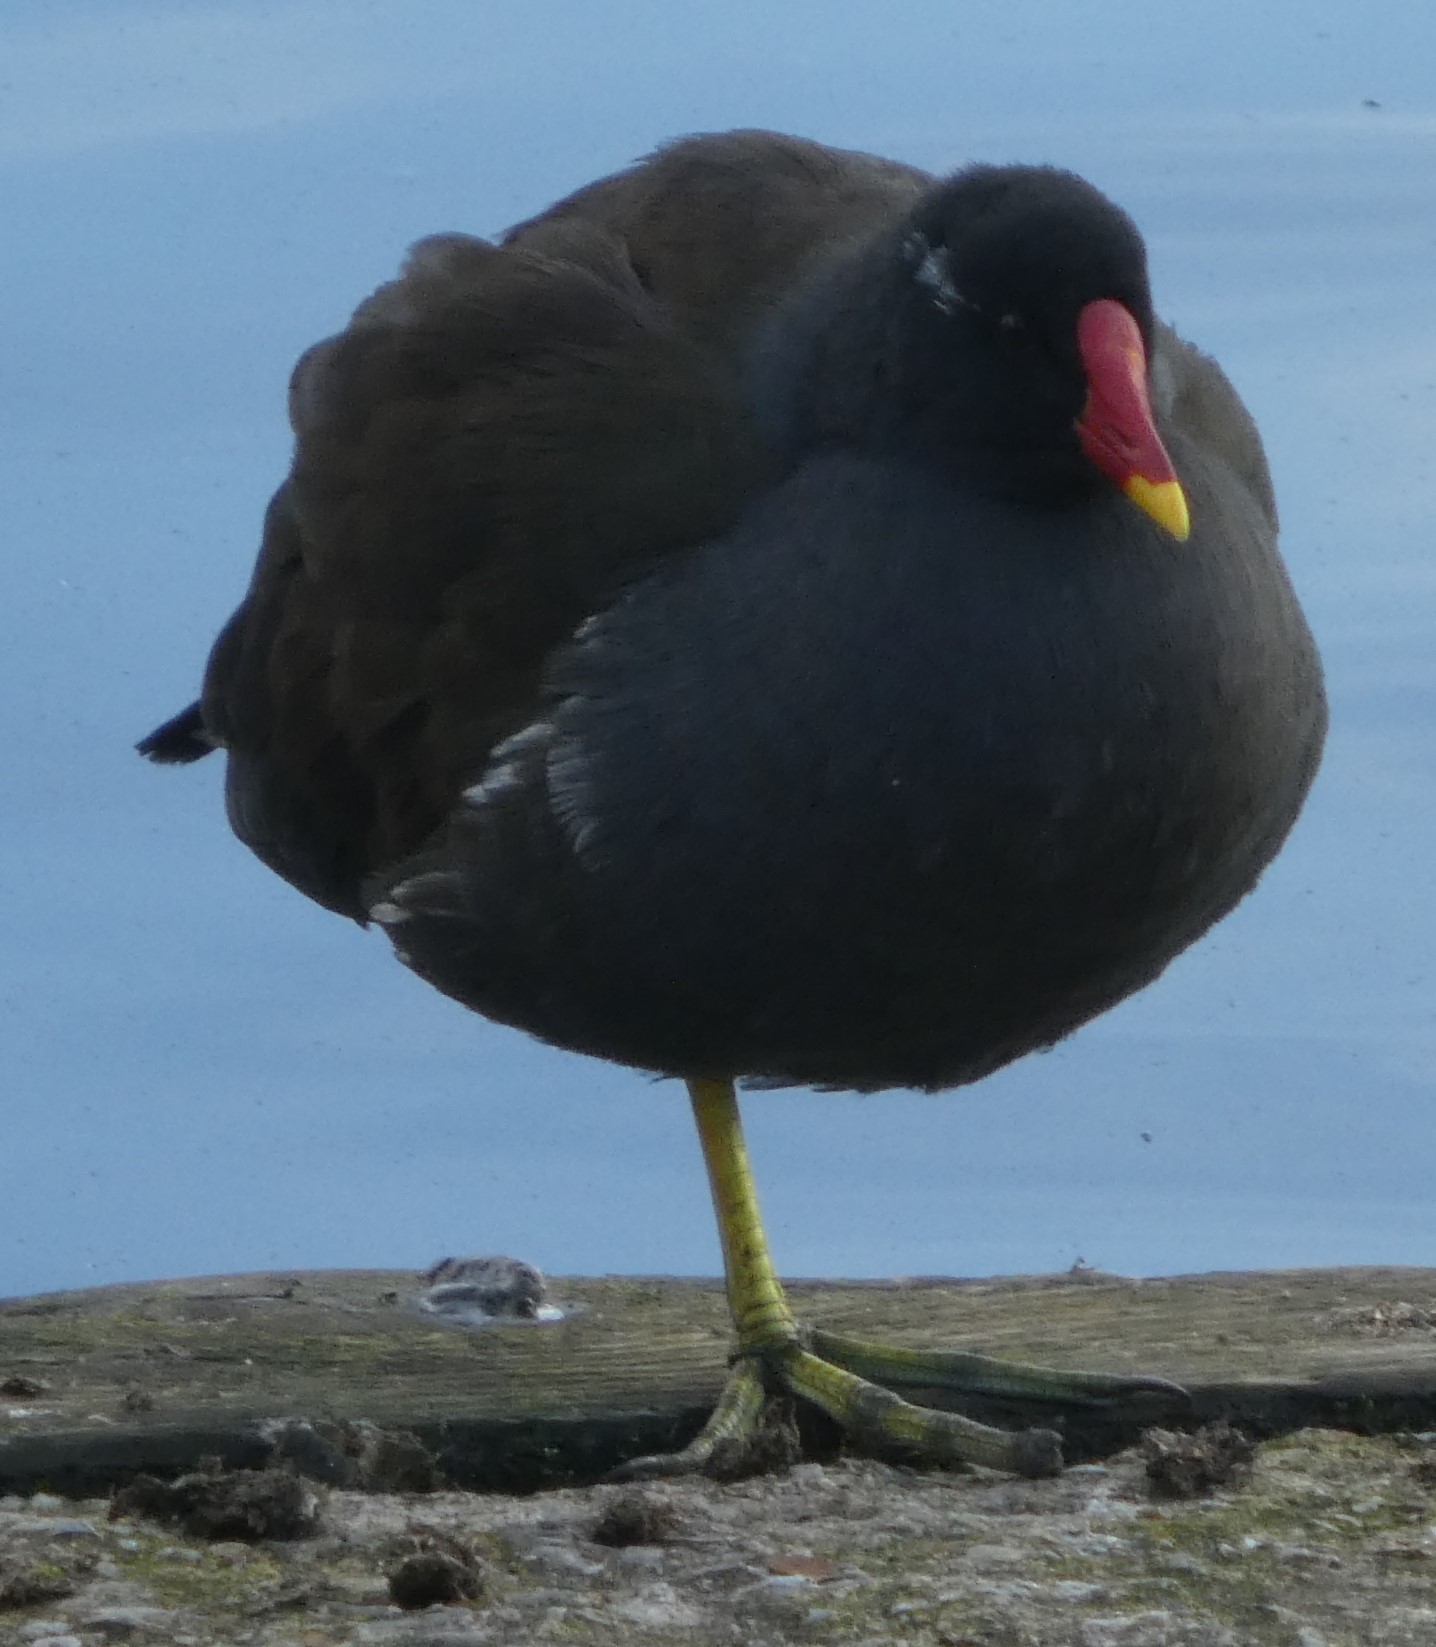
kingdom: Animalia
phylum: Chordata
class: Aves
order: Gruiformes
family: Rallidae
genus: Gallinula
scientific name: Gallinula chloropus
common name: Common moorhen
